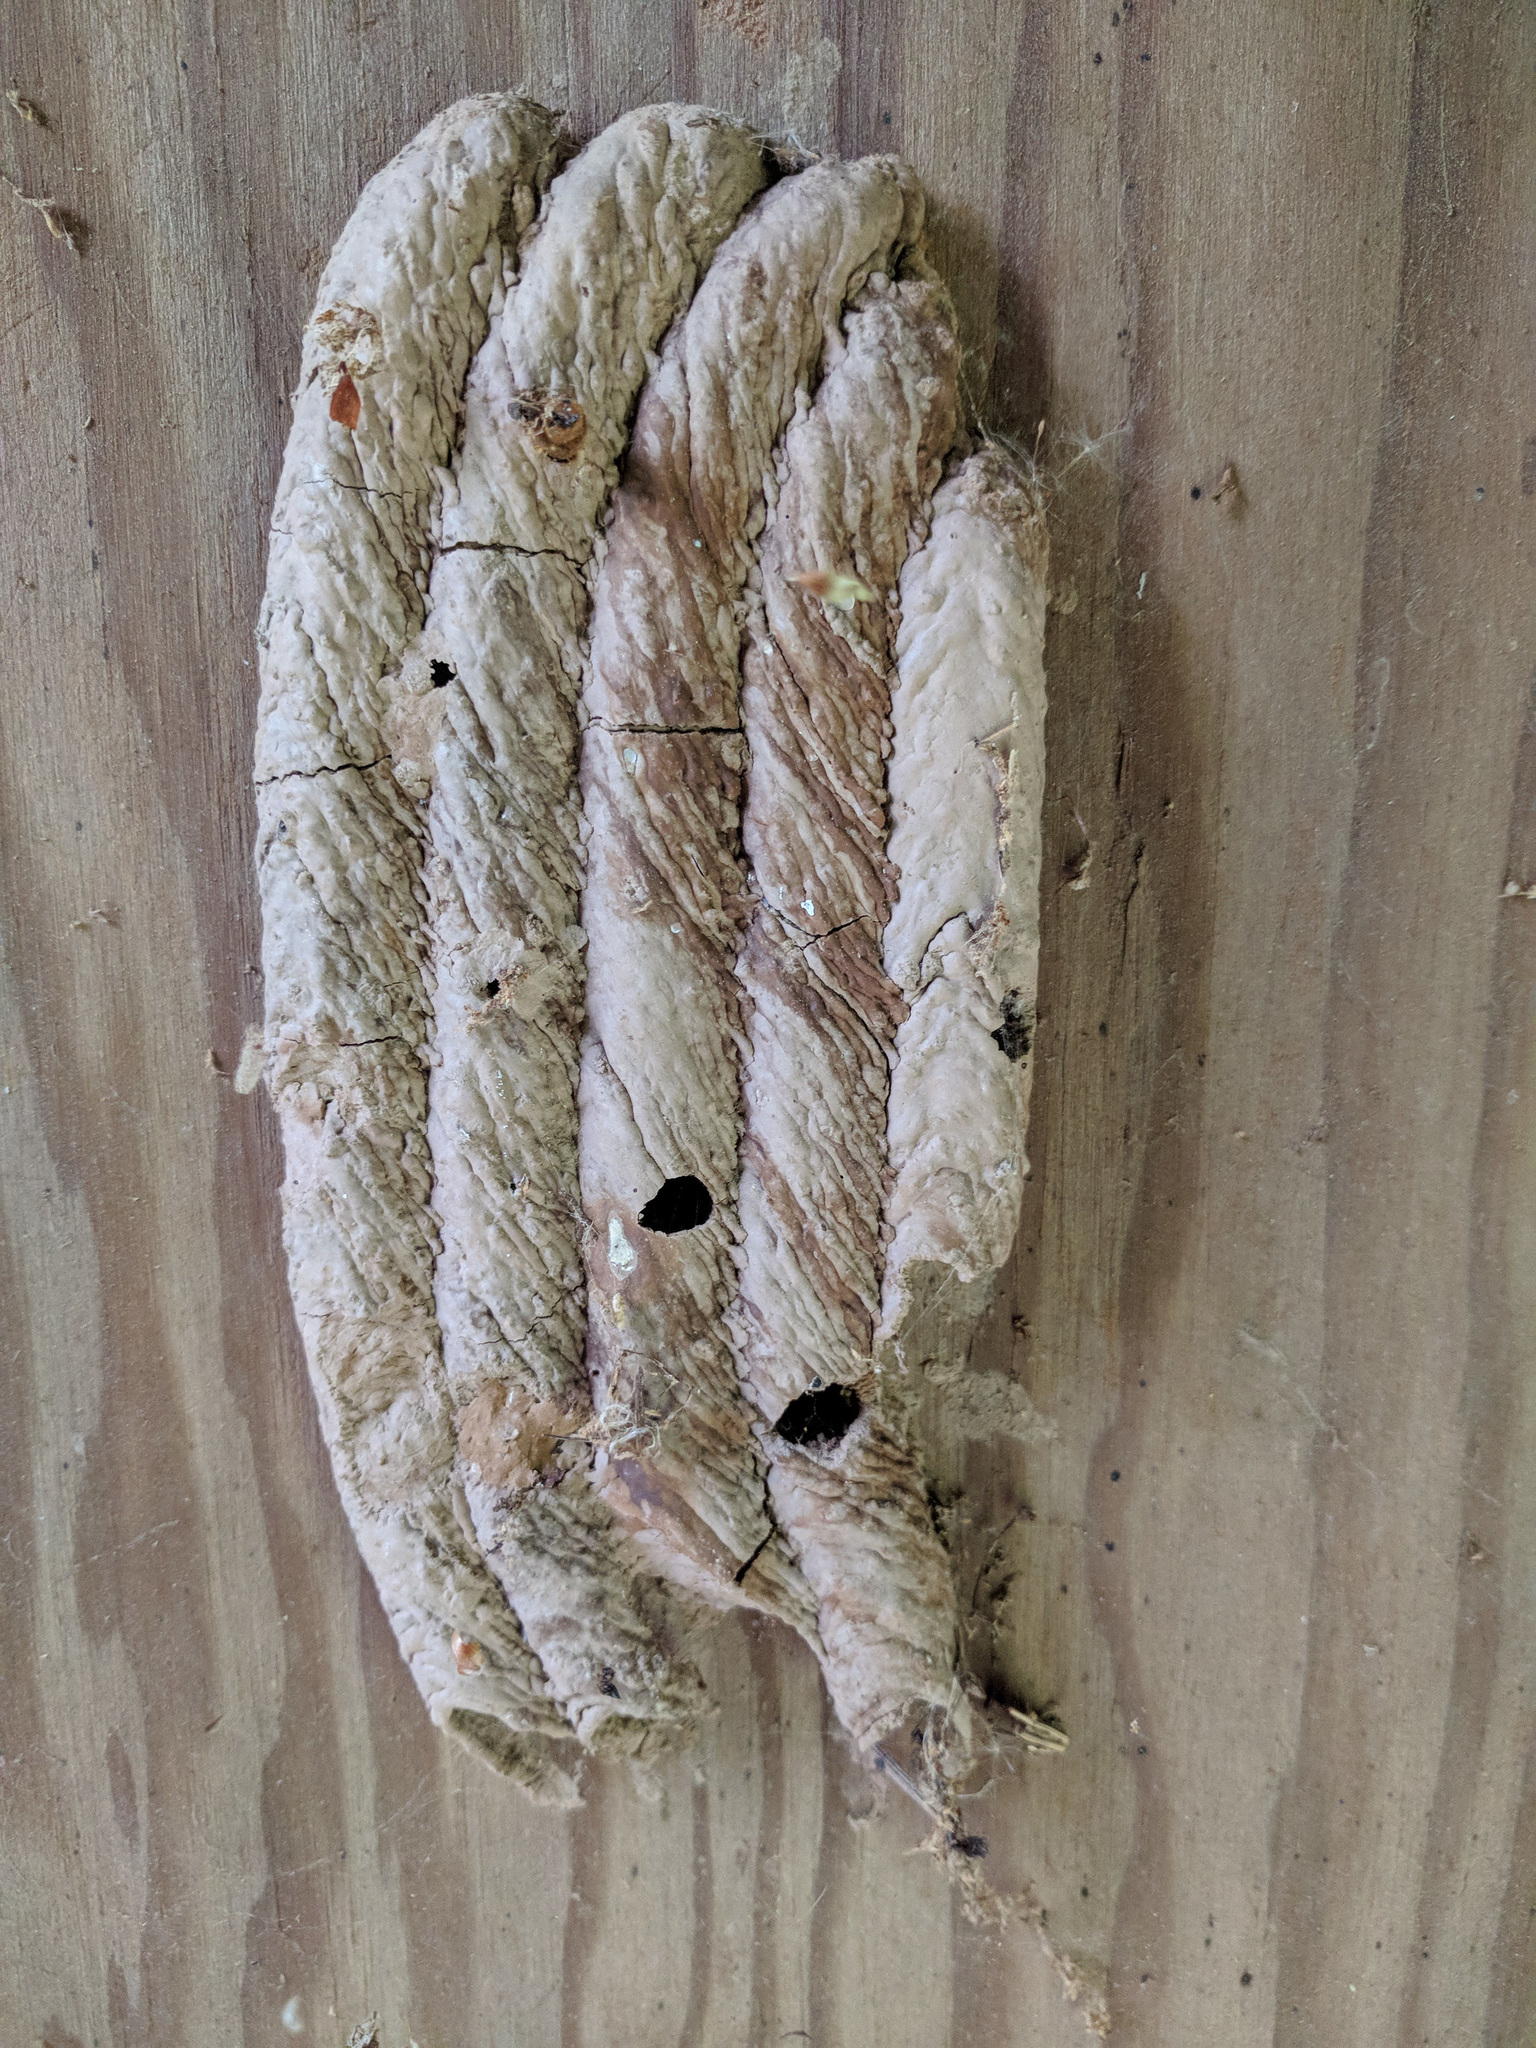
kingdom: Animalia
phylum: Arthropoda
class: Insecta
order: Hymenoptera
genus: Trypargilum
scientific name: Trypargilum
